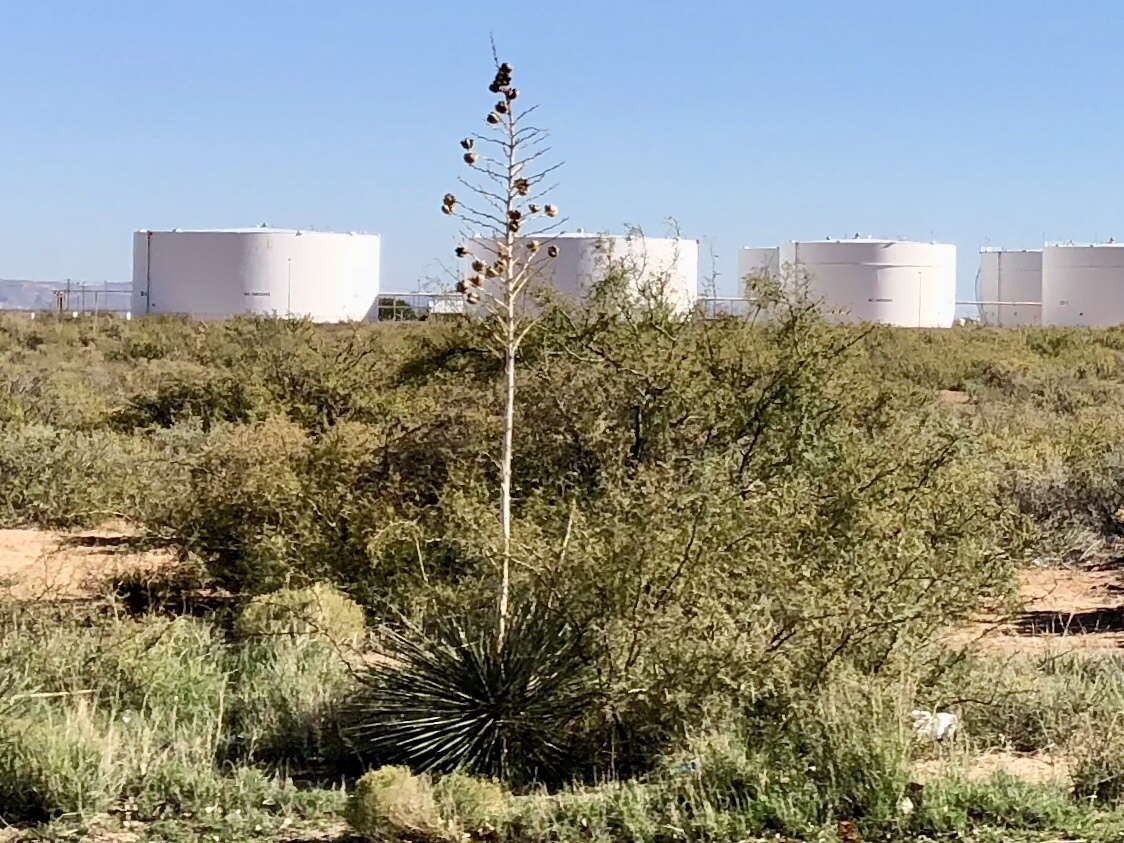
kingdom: Plantae
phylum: Tracheophyta
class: Liliopsida
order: Asparagales
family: Asparagaceae
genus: Yucca
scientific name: Yucca elata
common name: Palmella
